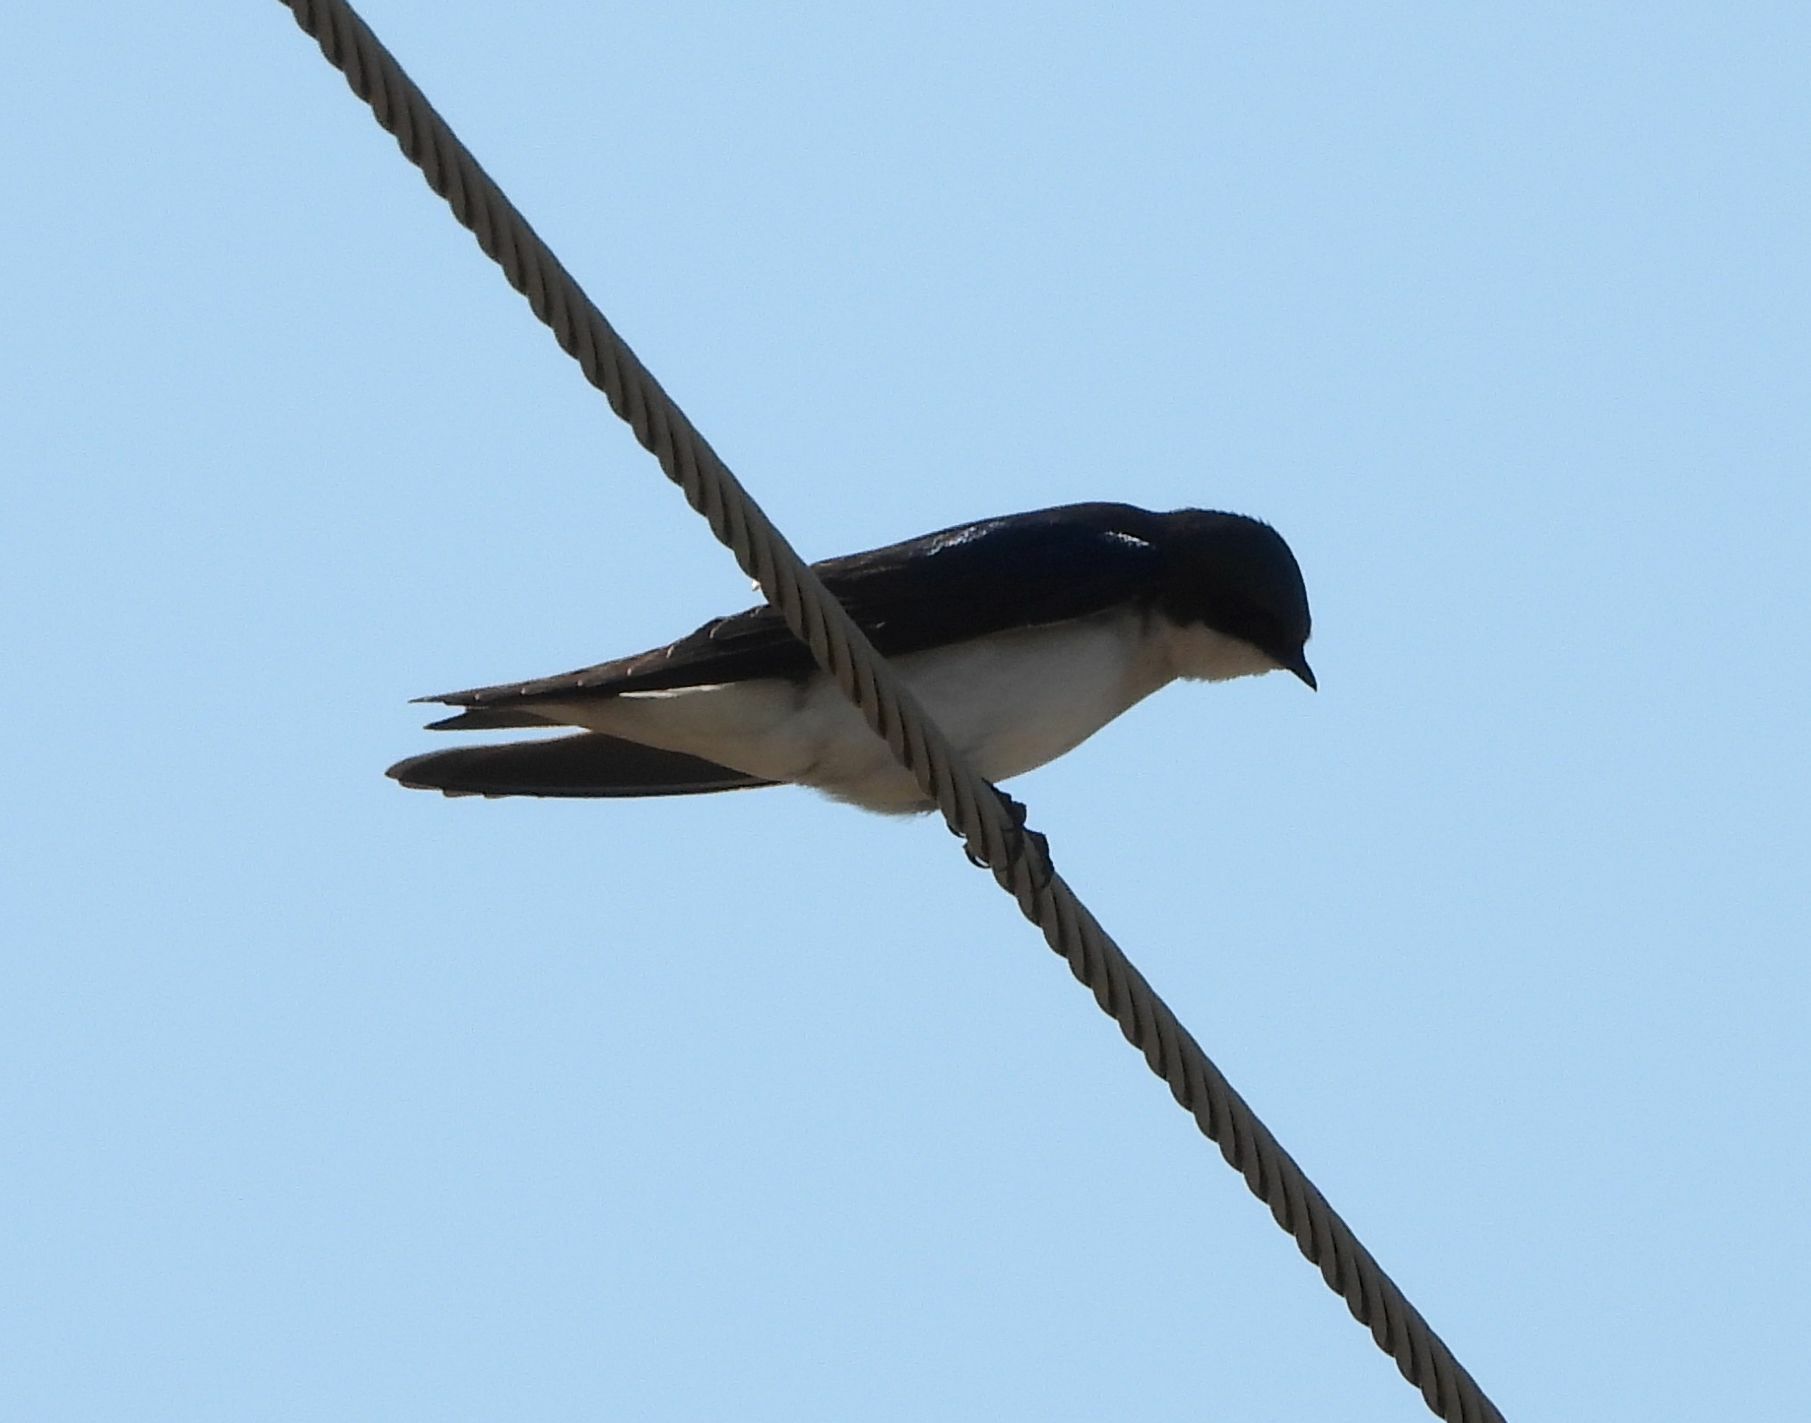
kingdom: Animalia
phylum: Chordata
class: Aves
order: Passeriformes
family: Hirundinidae
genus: Tachycineta
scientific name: Tachycineta bicolor
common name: Tree swallow
